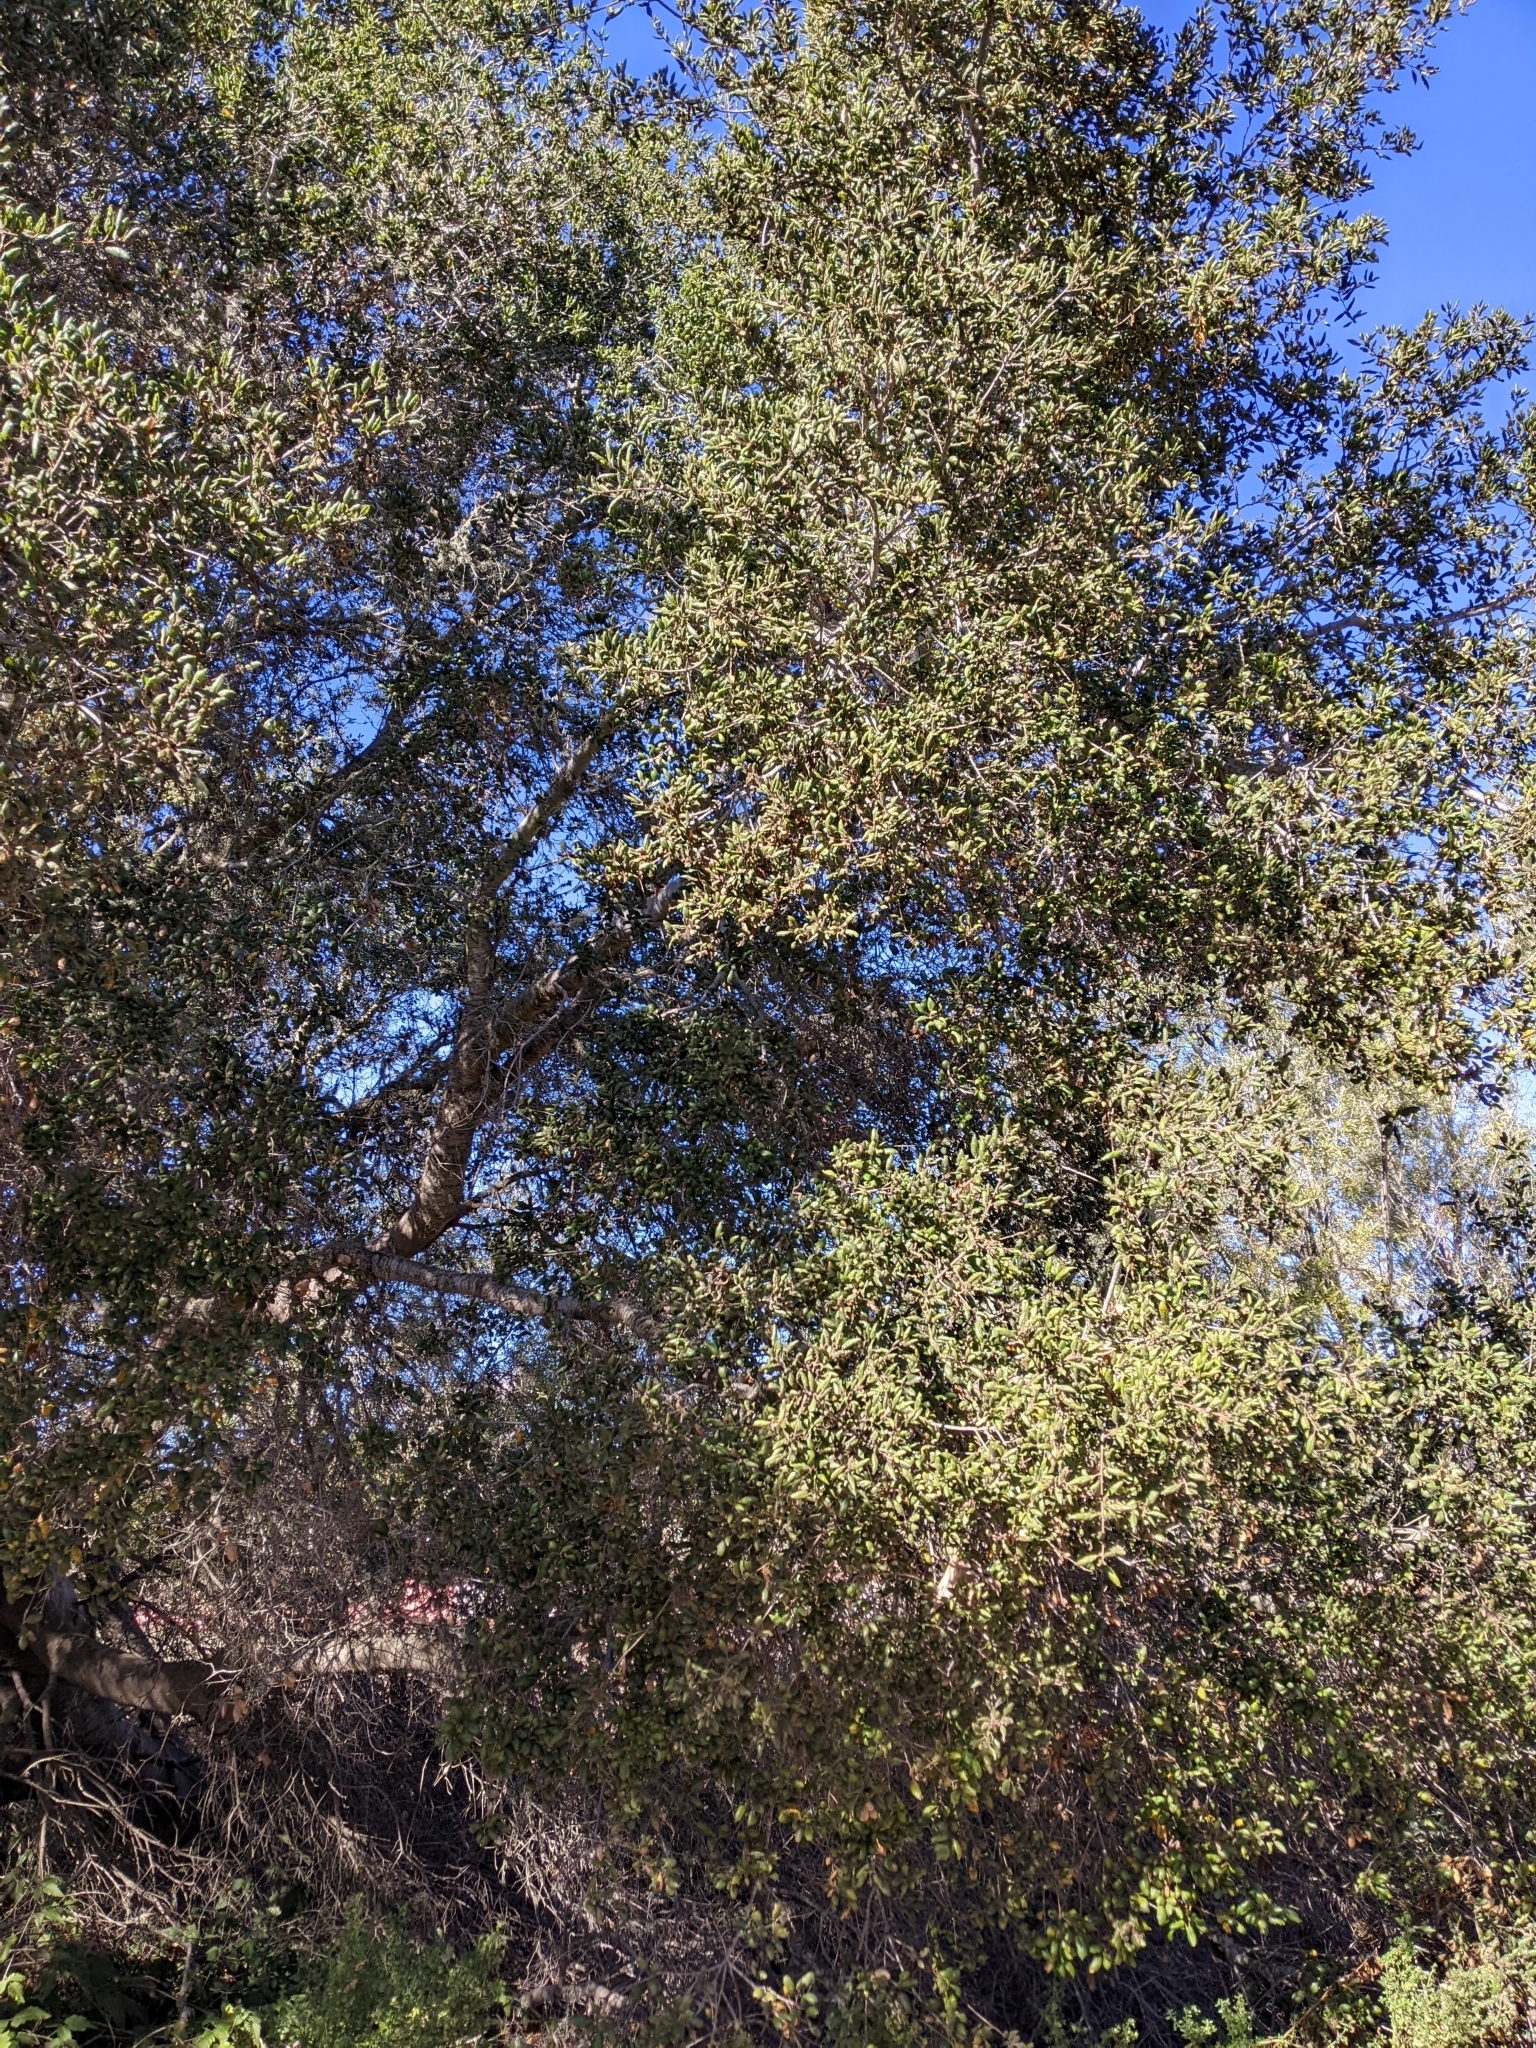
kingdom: Plantae
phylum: Tracheophyta
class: Magnoliopsida
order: Fagales
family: Fagaceae
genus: Quercus
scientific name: Quercus agrifolia
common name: California live oak
